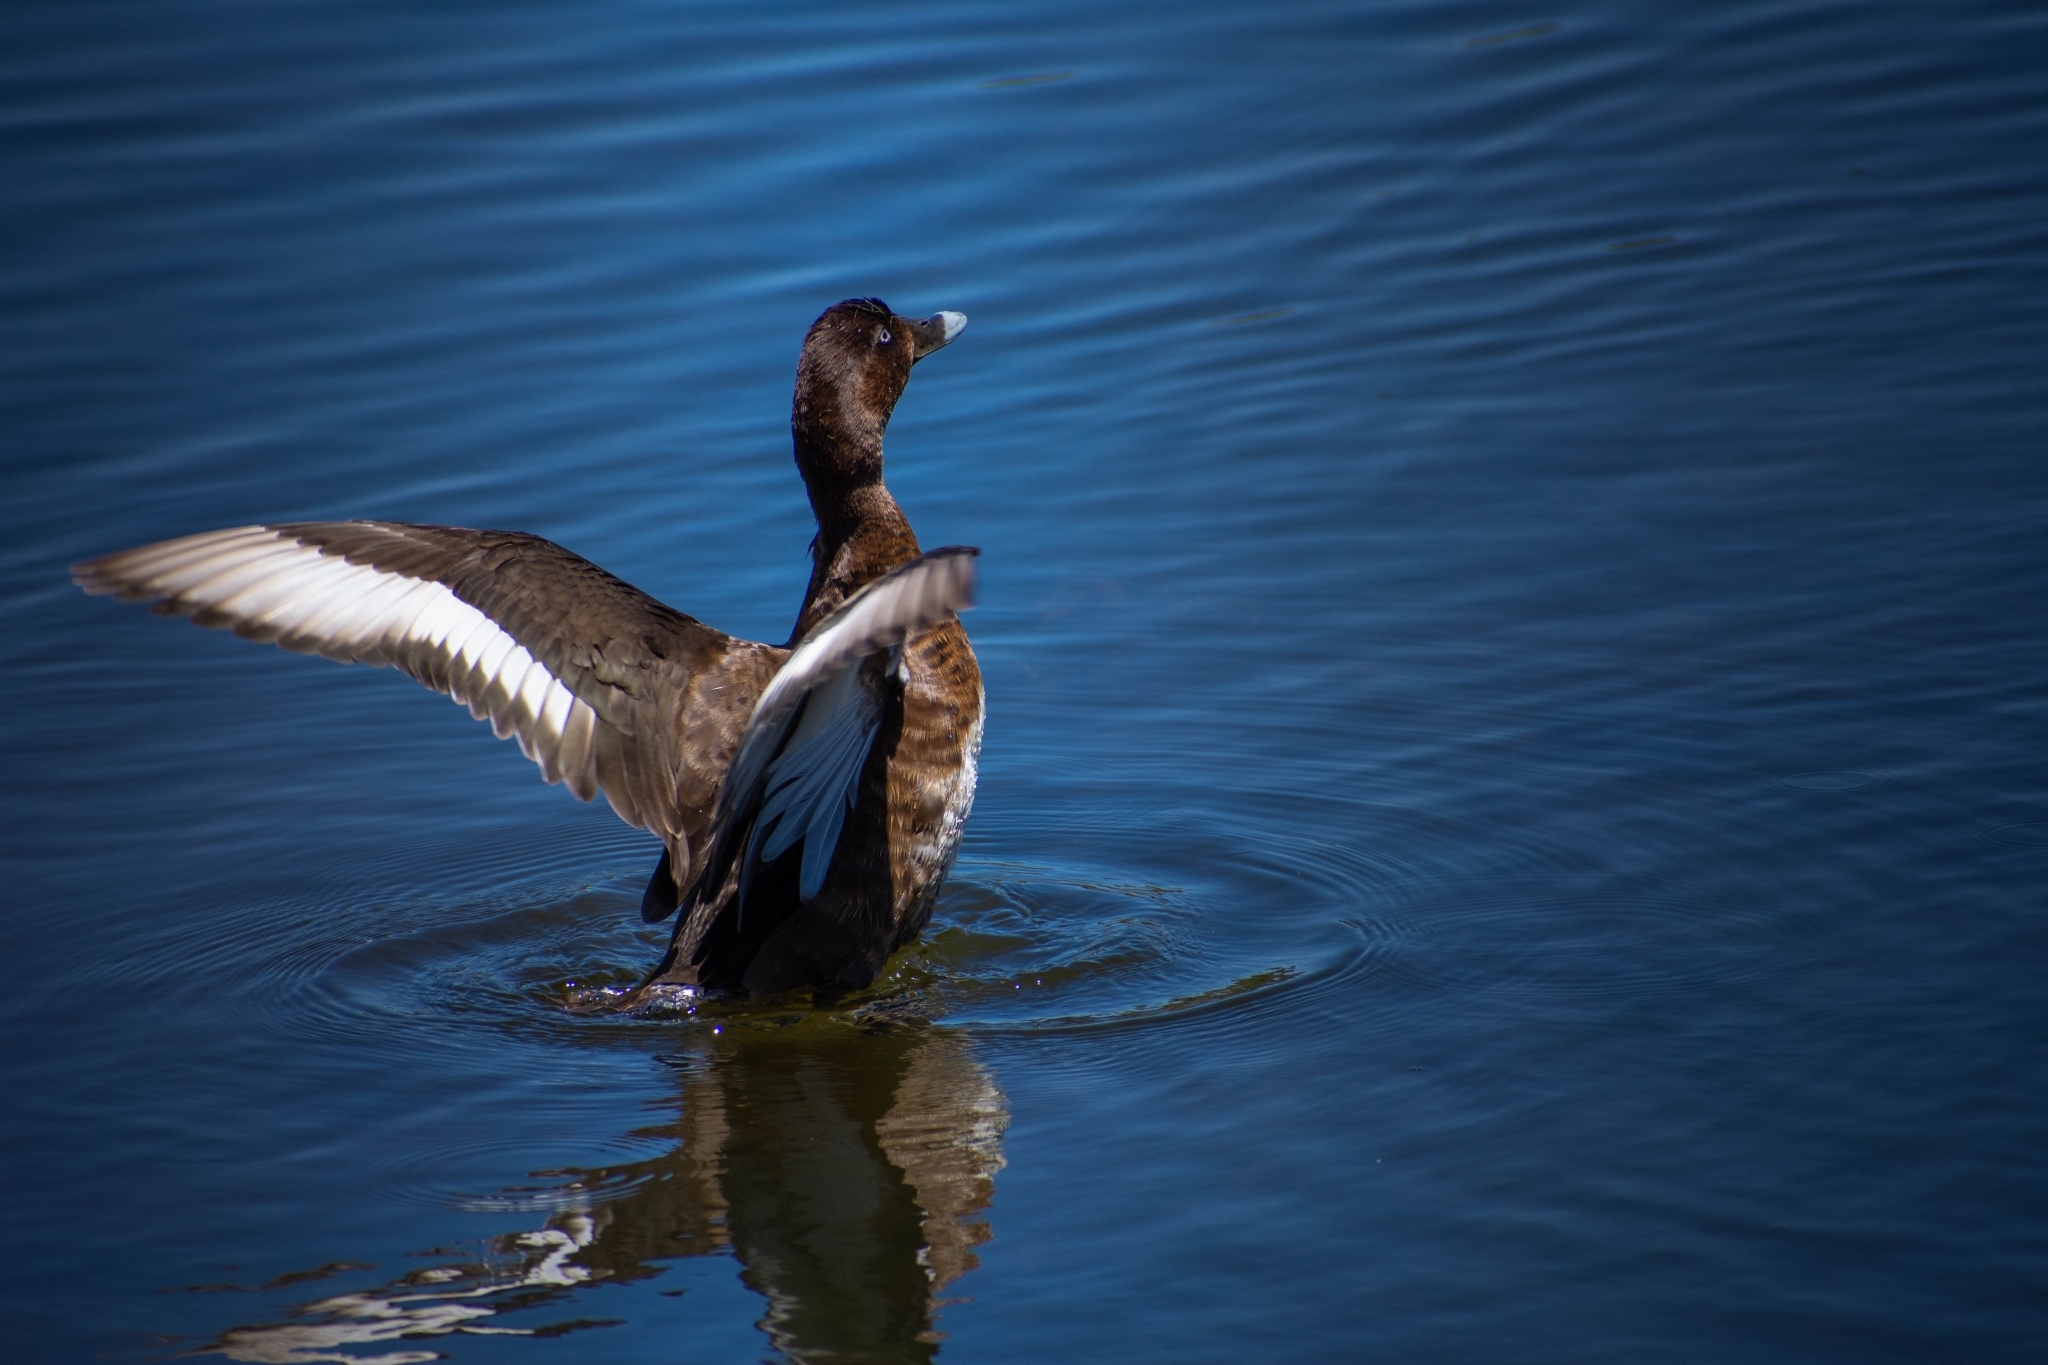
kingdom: Animalia
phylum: Chordata
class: Aves
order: Anseriformes
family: Anatidae
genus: Aythya
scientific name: Aythya australis
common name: Hardhead
